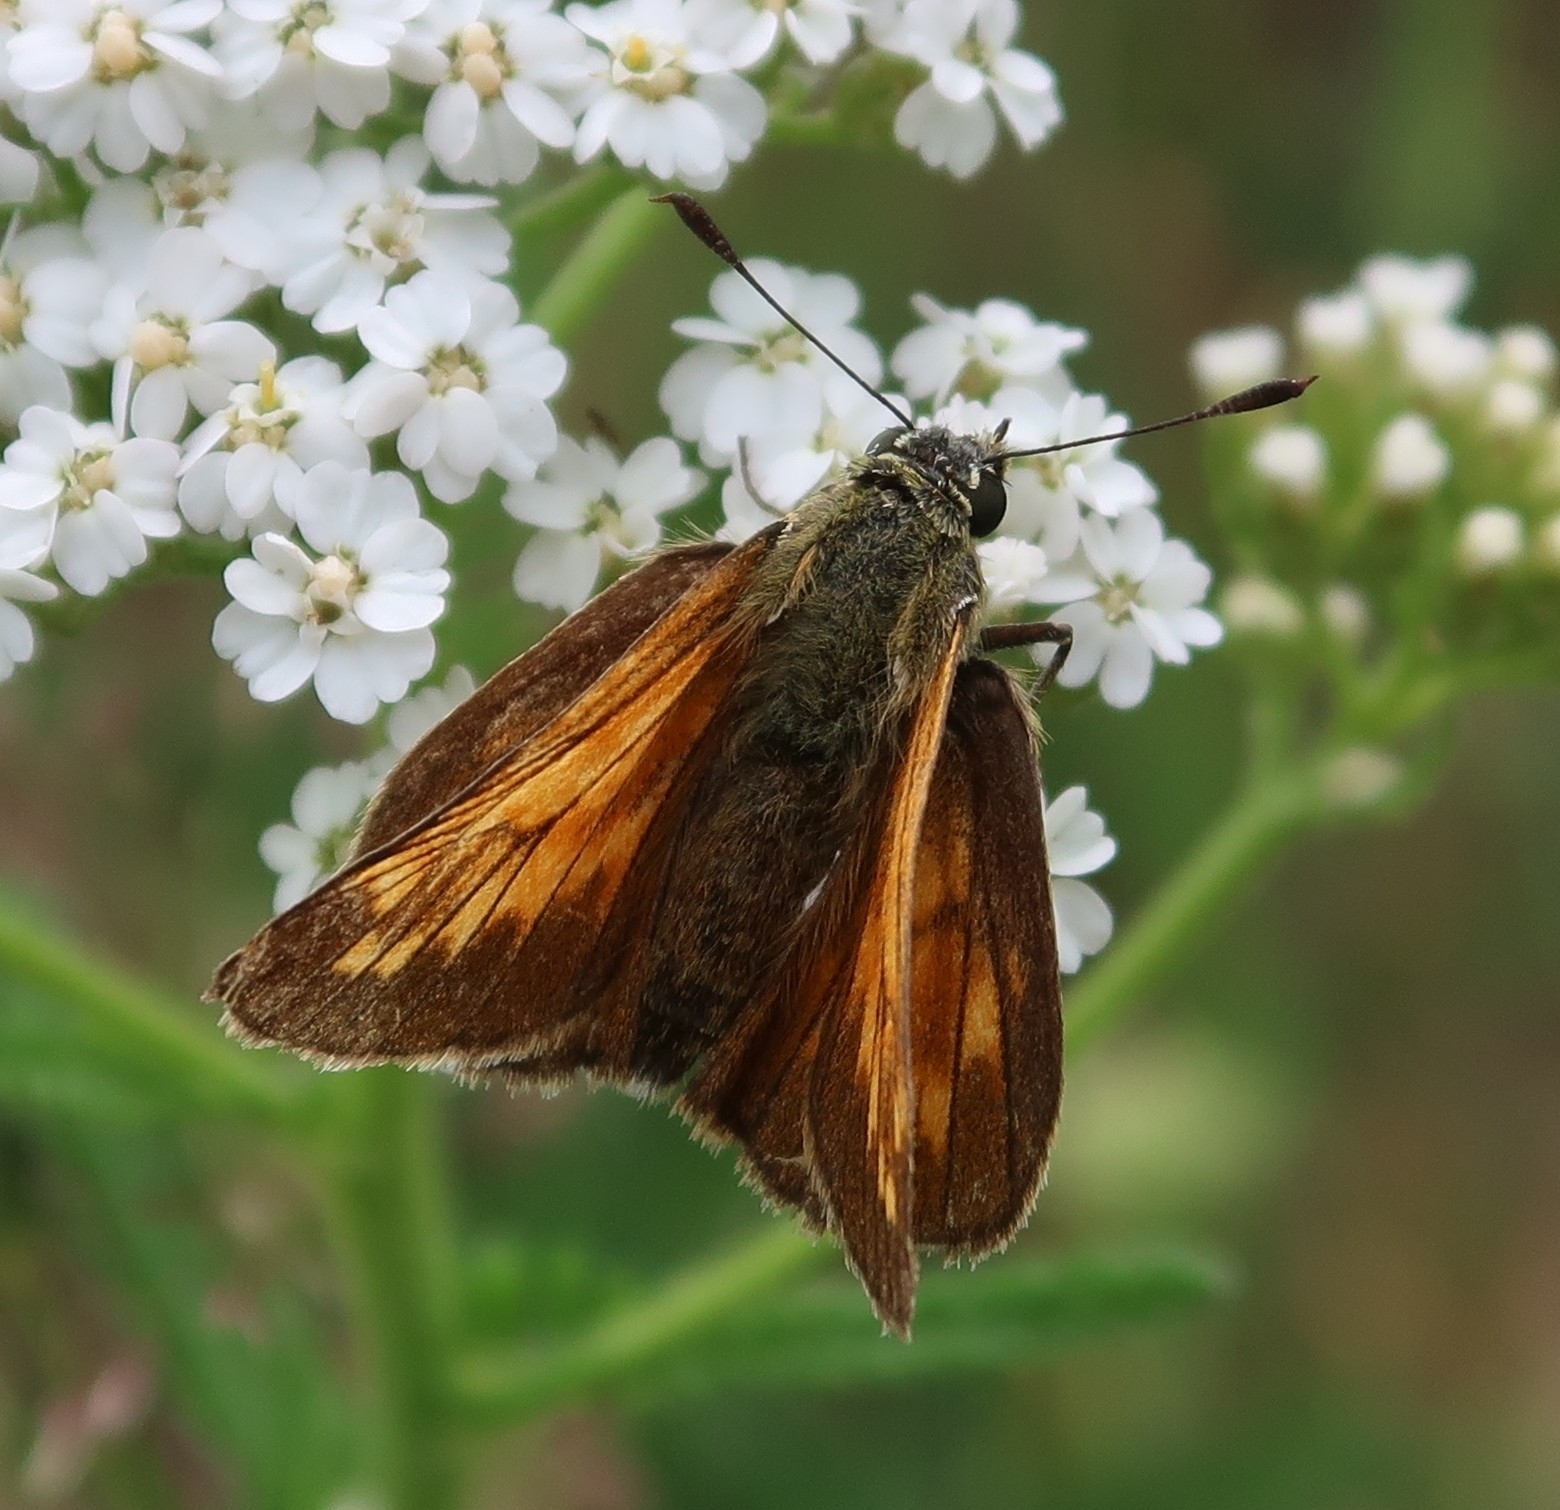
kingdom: Animalia
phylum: Arthropoda
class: Insecta
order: Lepidoptera
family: Hesperiidae
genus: Ochlodes
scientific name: Ochlodes venata
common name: Large skipper
